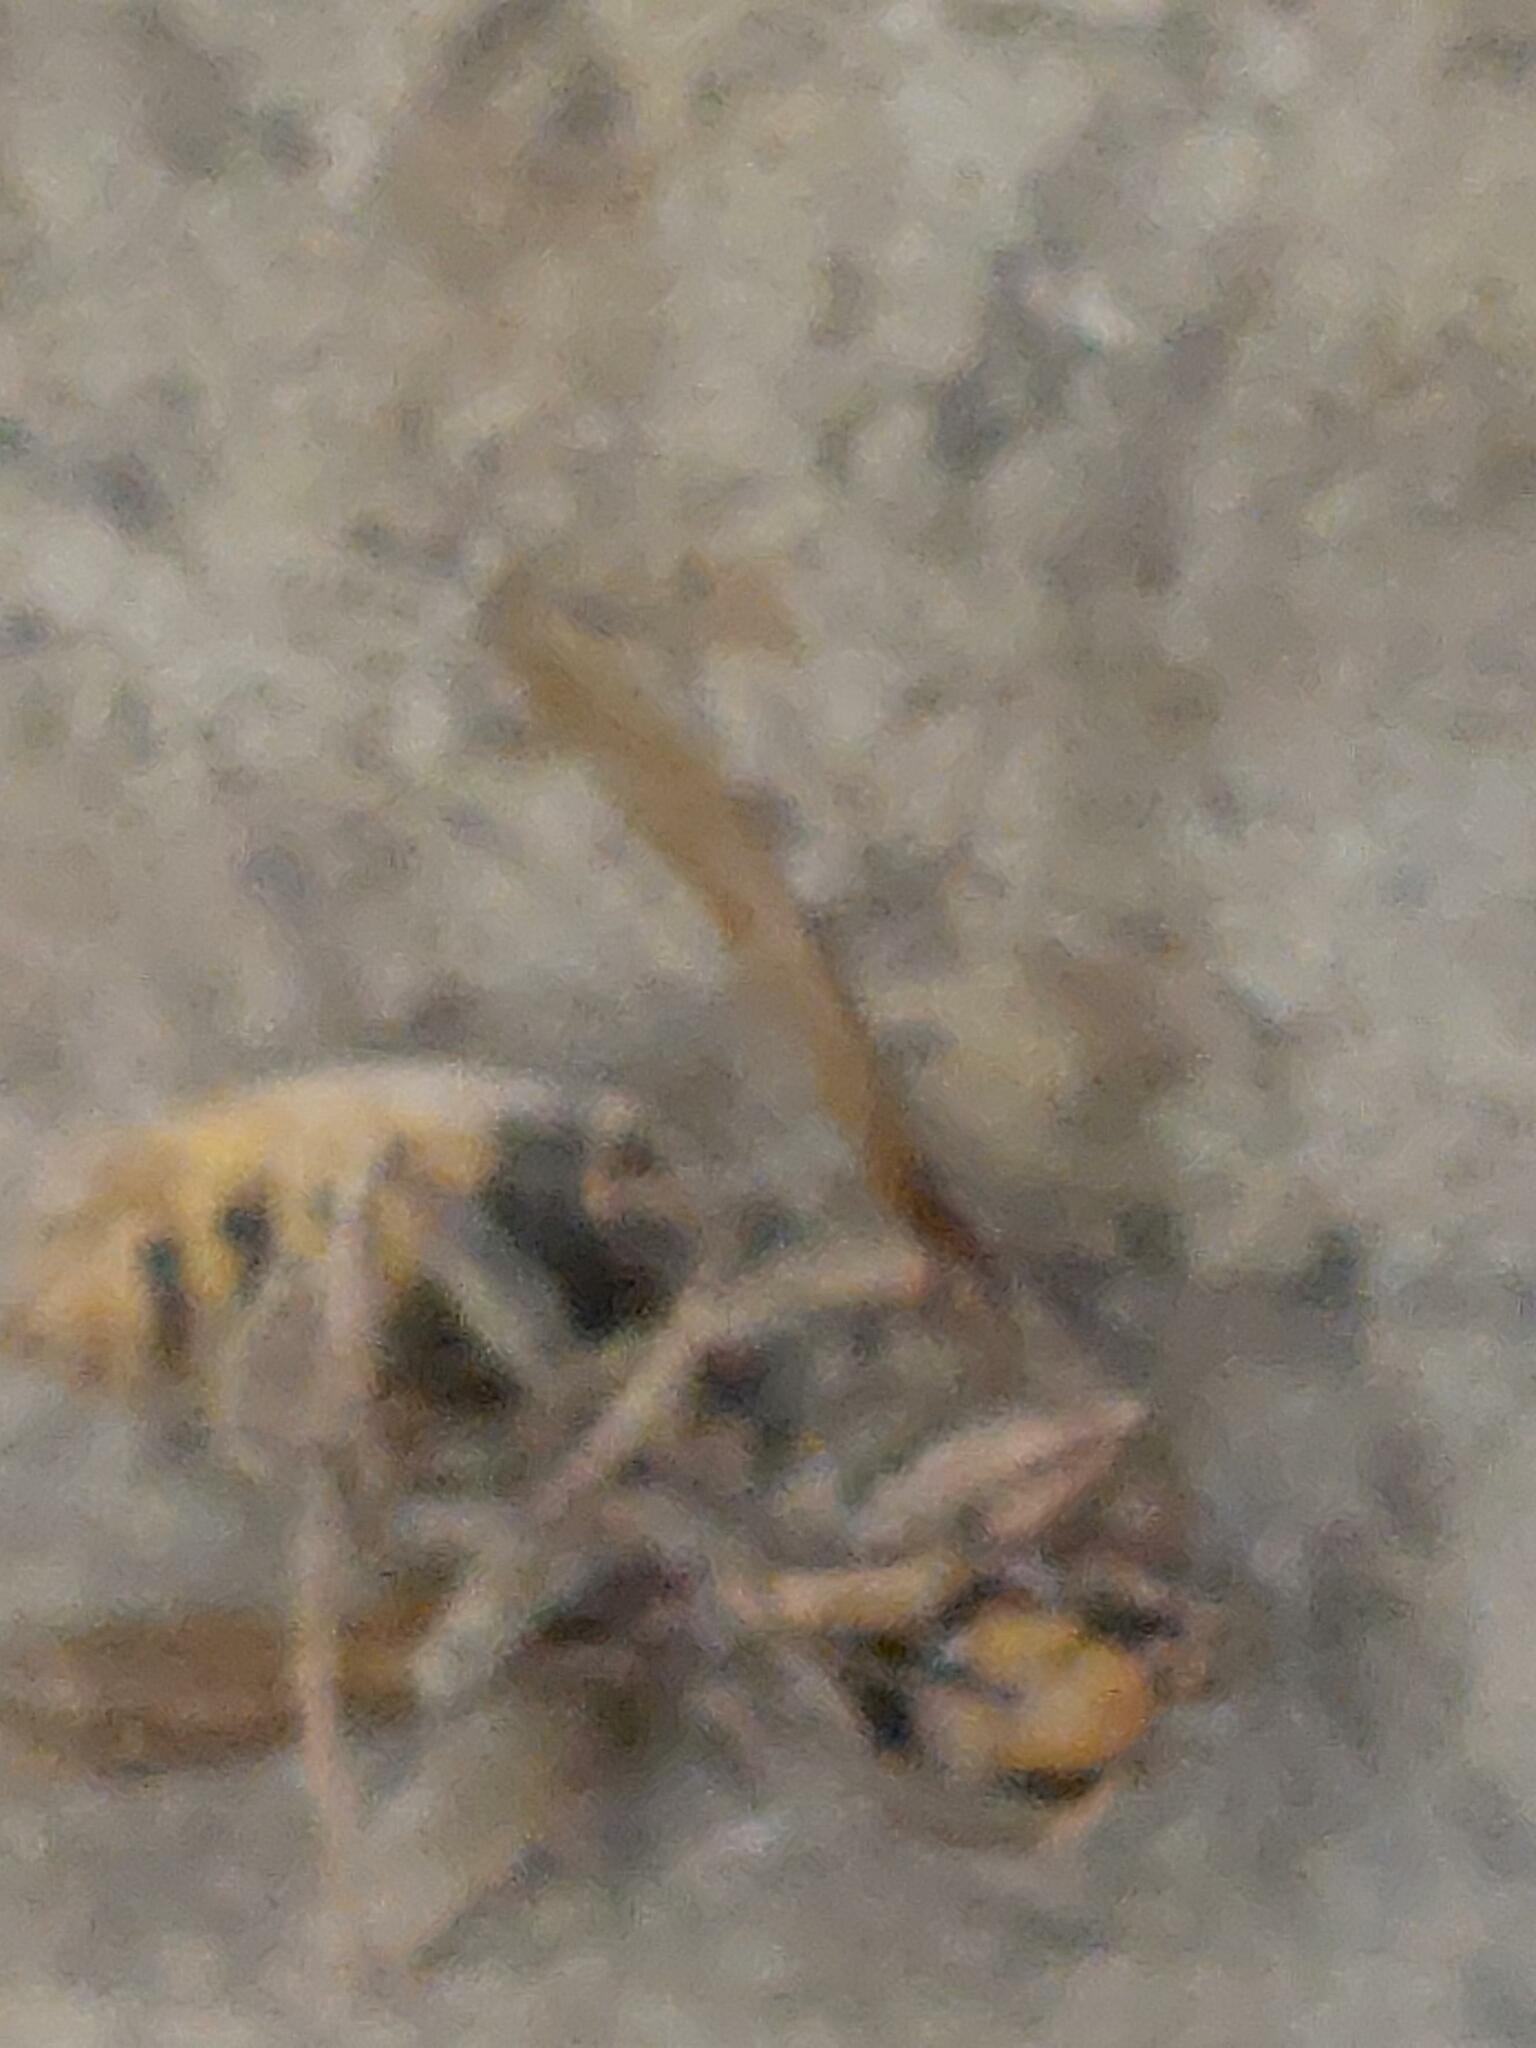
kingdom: Animalia
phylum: Arthropoda
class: Insecta
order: Hymenoptera
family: Vespidae
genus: Vespa
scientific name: Vespa crabro
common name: Hornet
